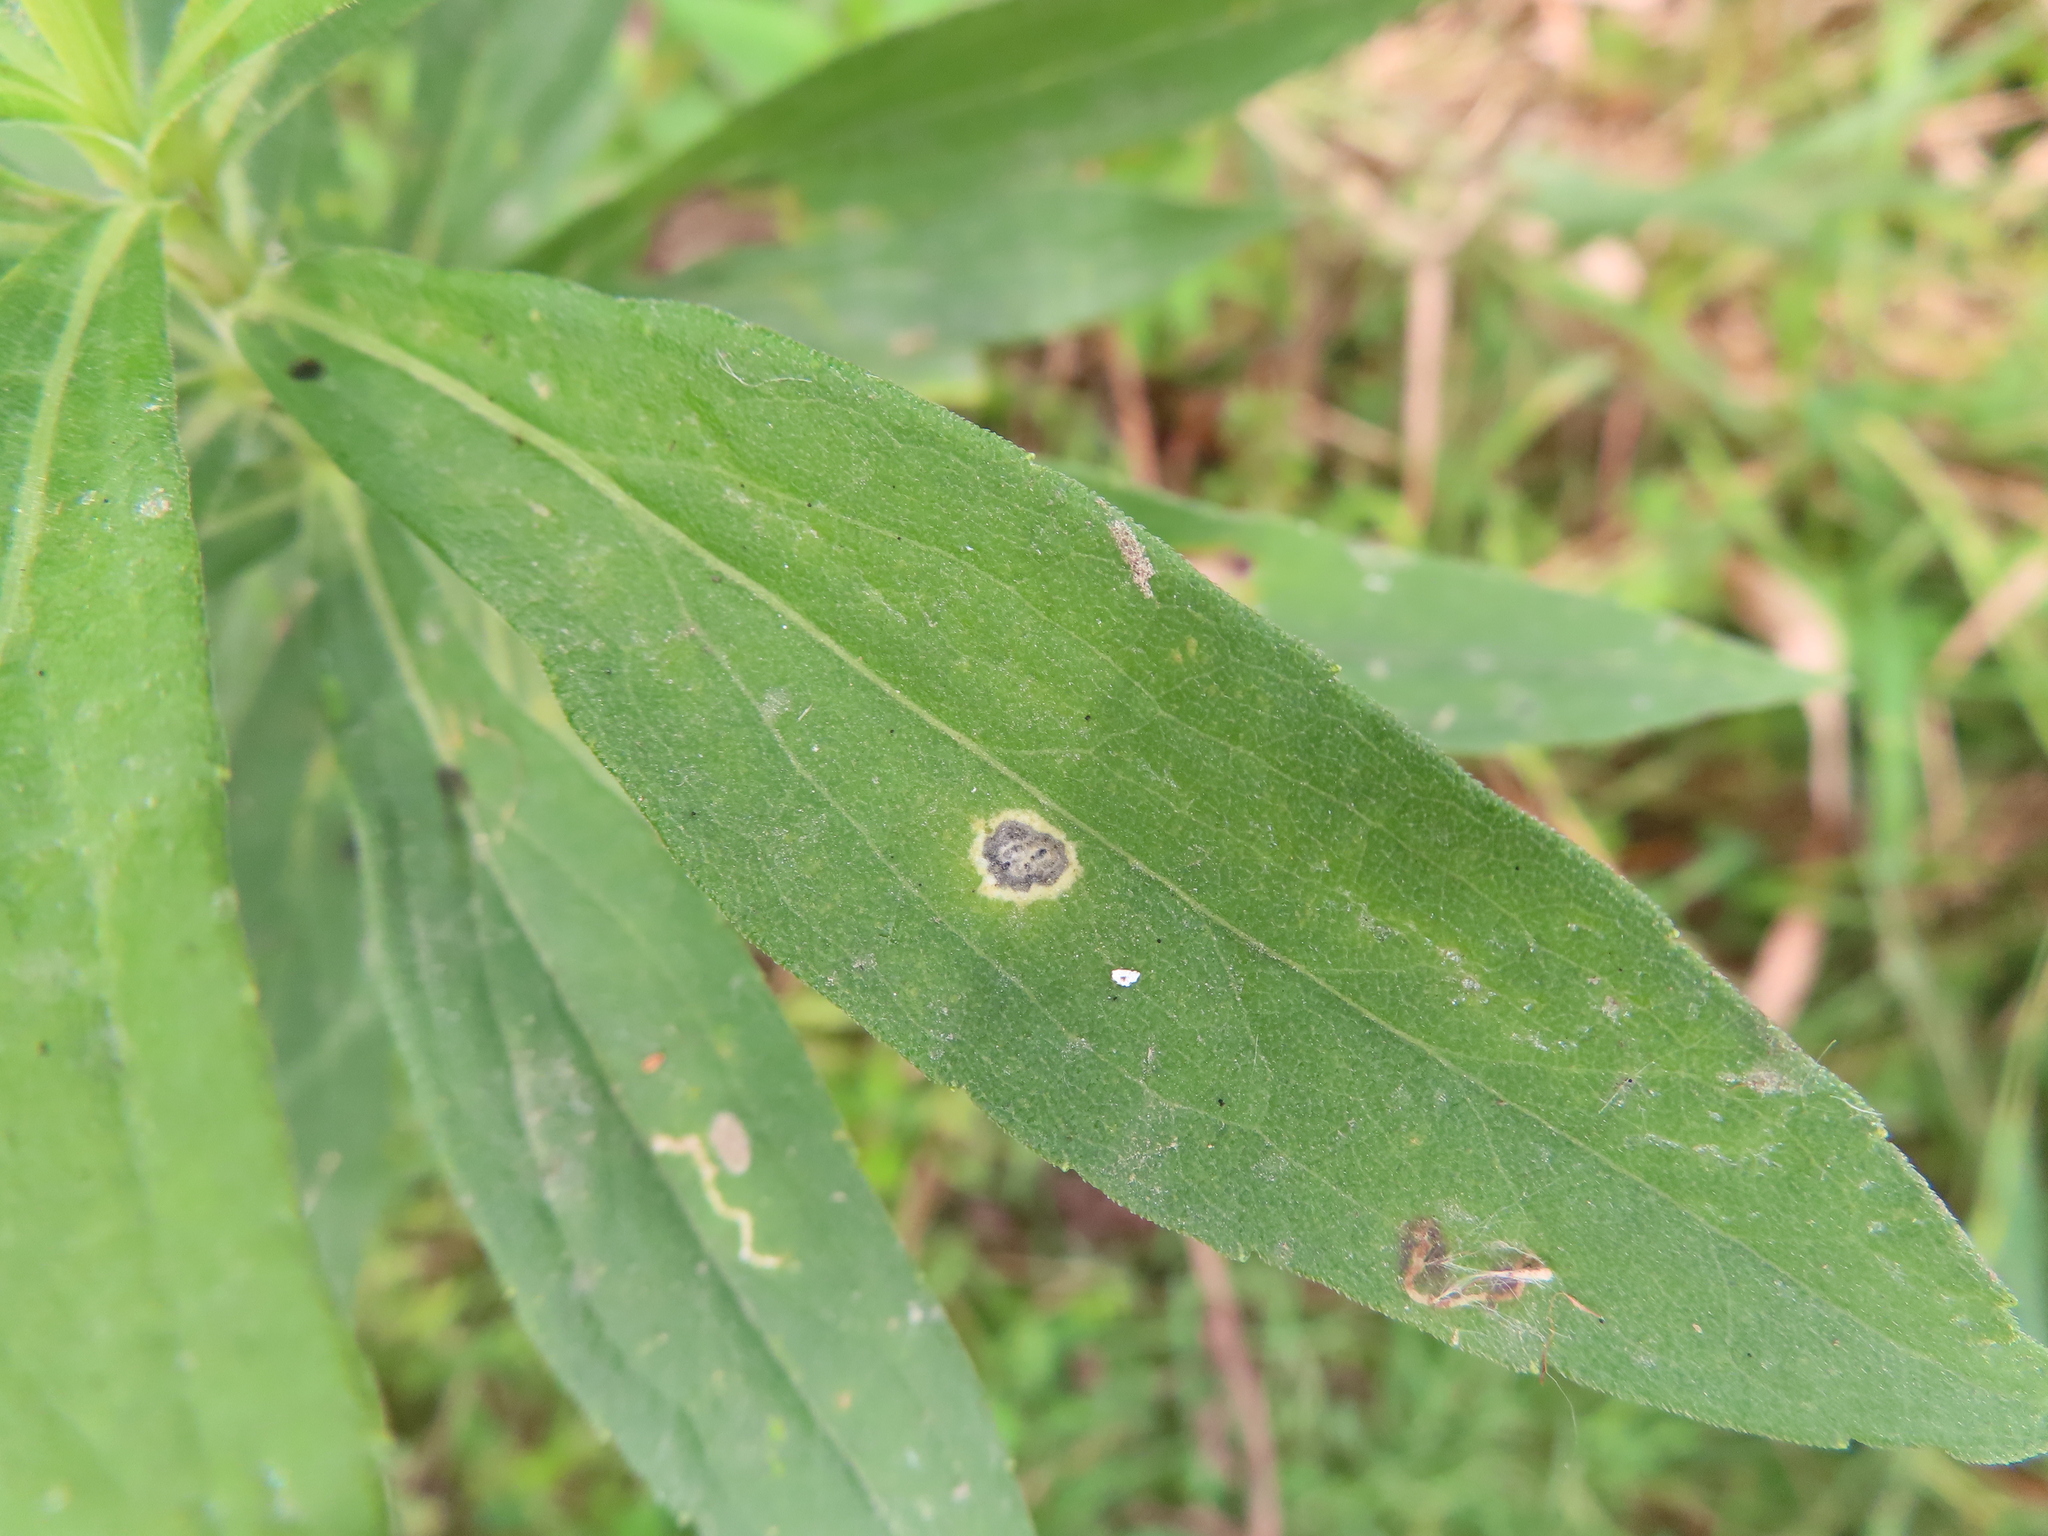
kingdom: Animalia
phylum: Arthropoda
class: Insecta
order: Diptera
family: Cecidomyiidae
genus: Asteromyia
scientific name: Asteromyia carbonifera
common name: Carbonifera goldenrod gall midge
